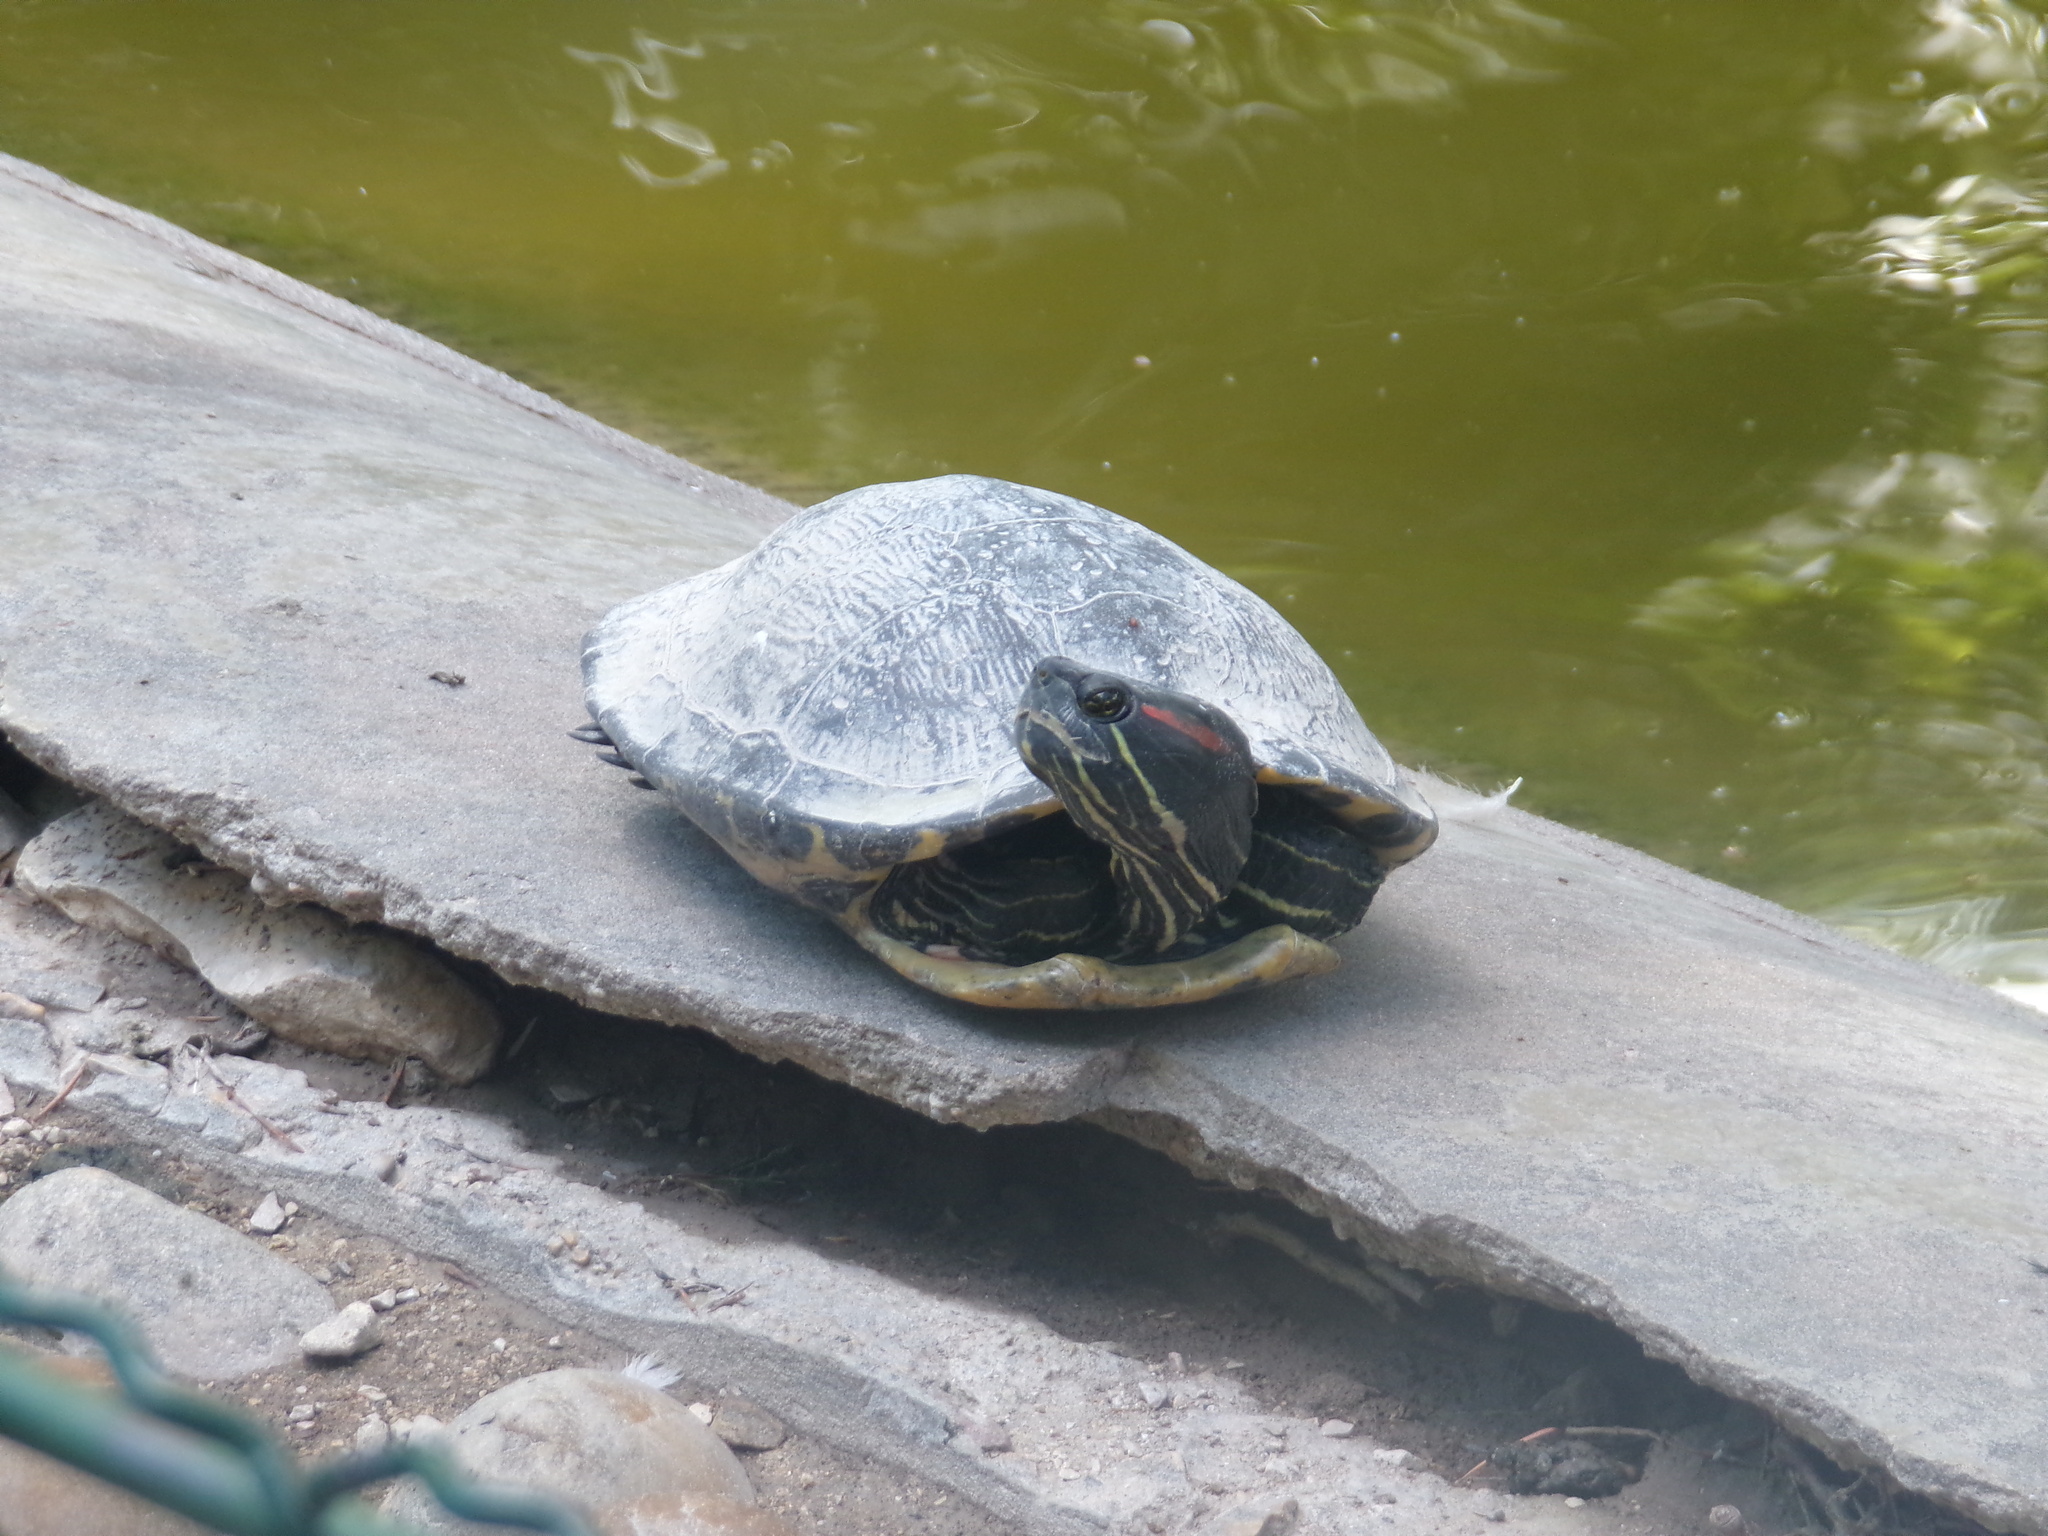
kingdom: Animalia
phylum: Chordata
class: Testudines
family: Emydidae
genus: Trachemys
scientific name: Trachemys scripta
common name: Slider
